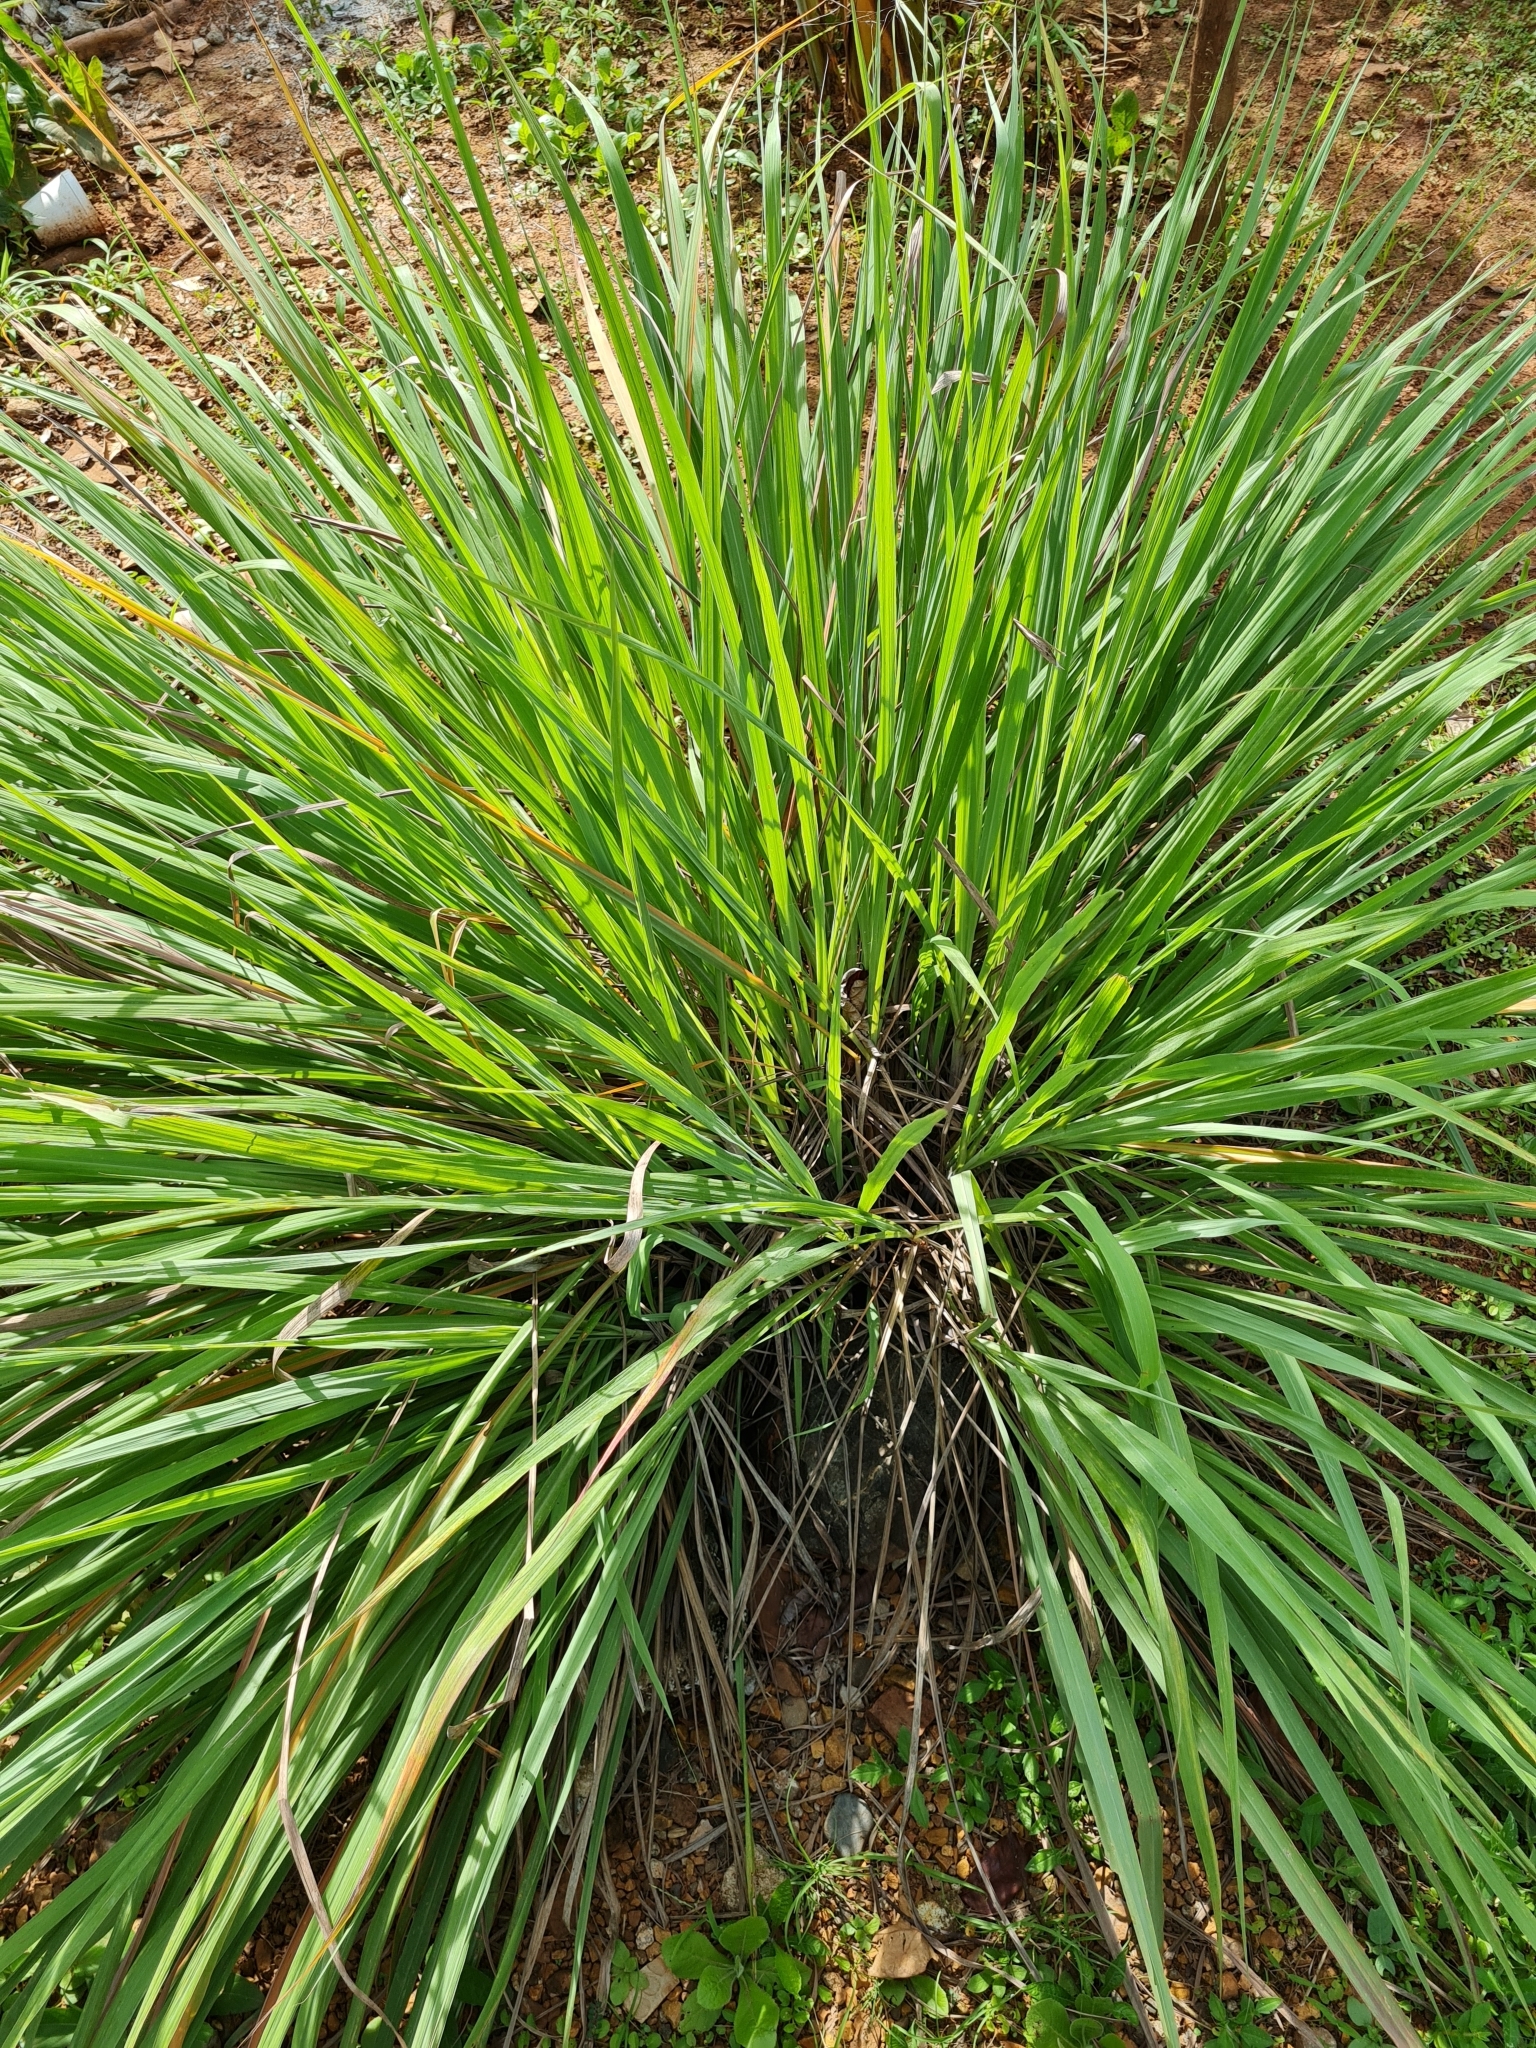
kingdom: Plantae
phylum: Tracheophyta
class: Liliopsida
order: Poales
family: Poaceae
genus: Cymbopogon
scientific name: Cymbopogon citratus
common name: Lemon grass
